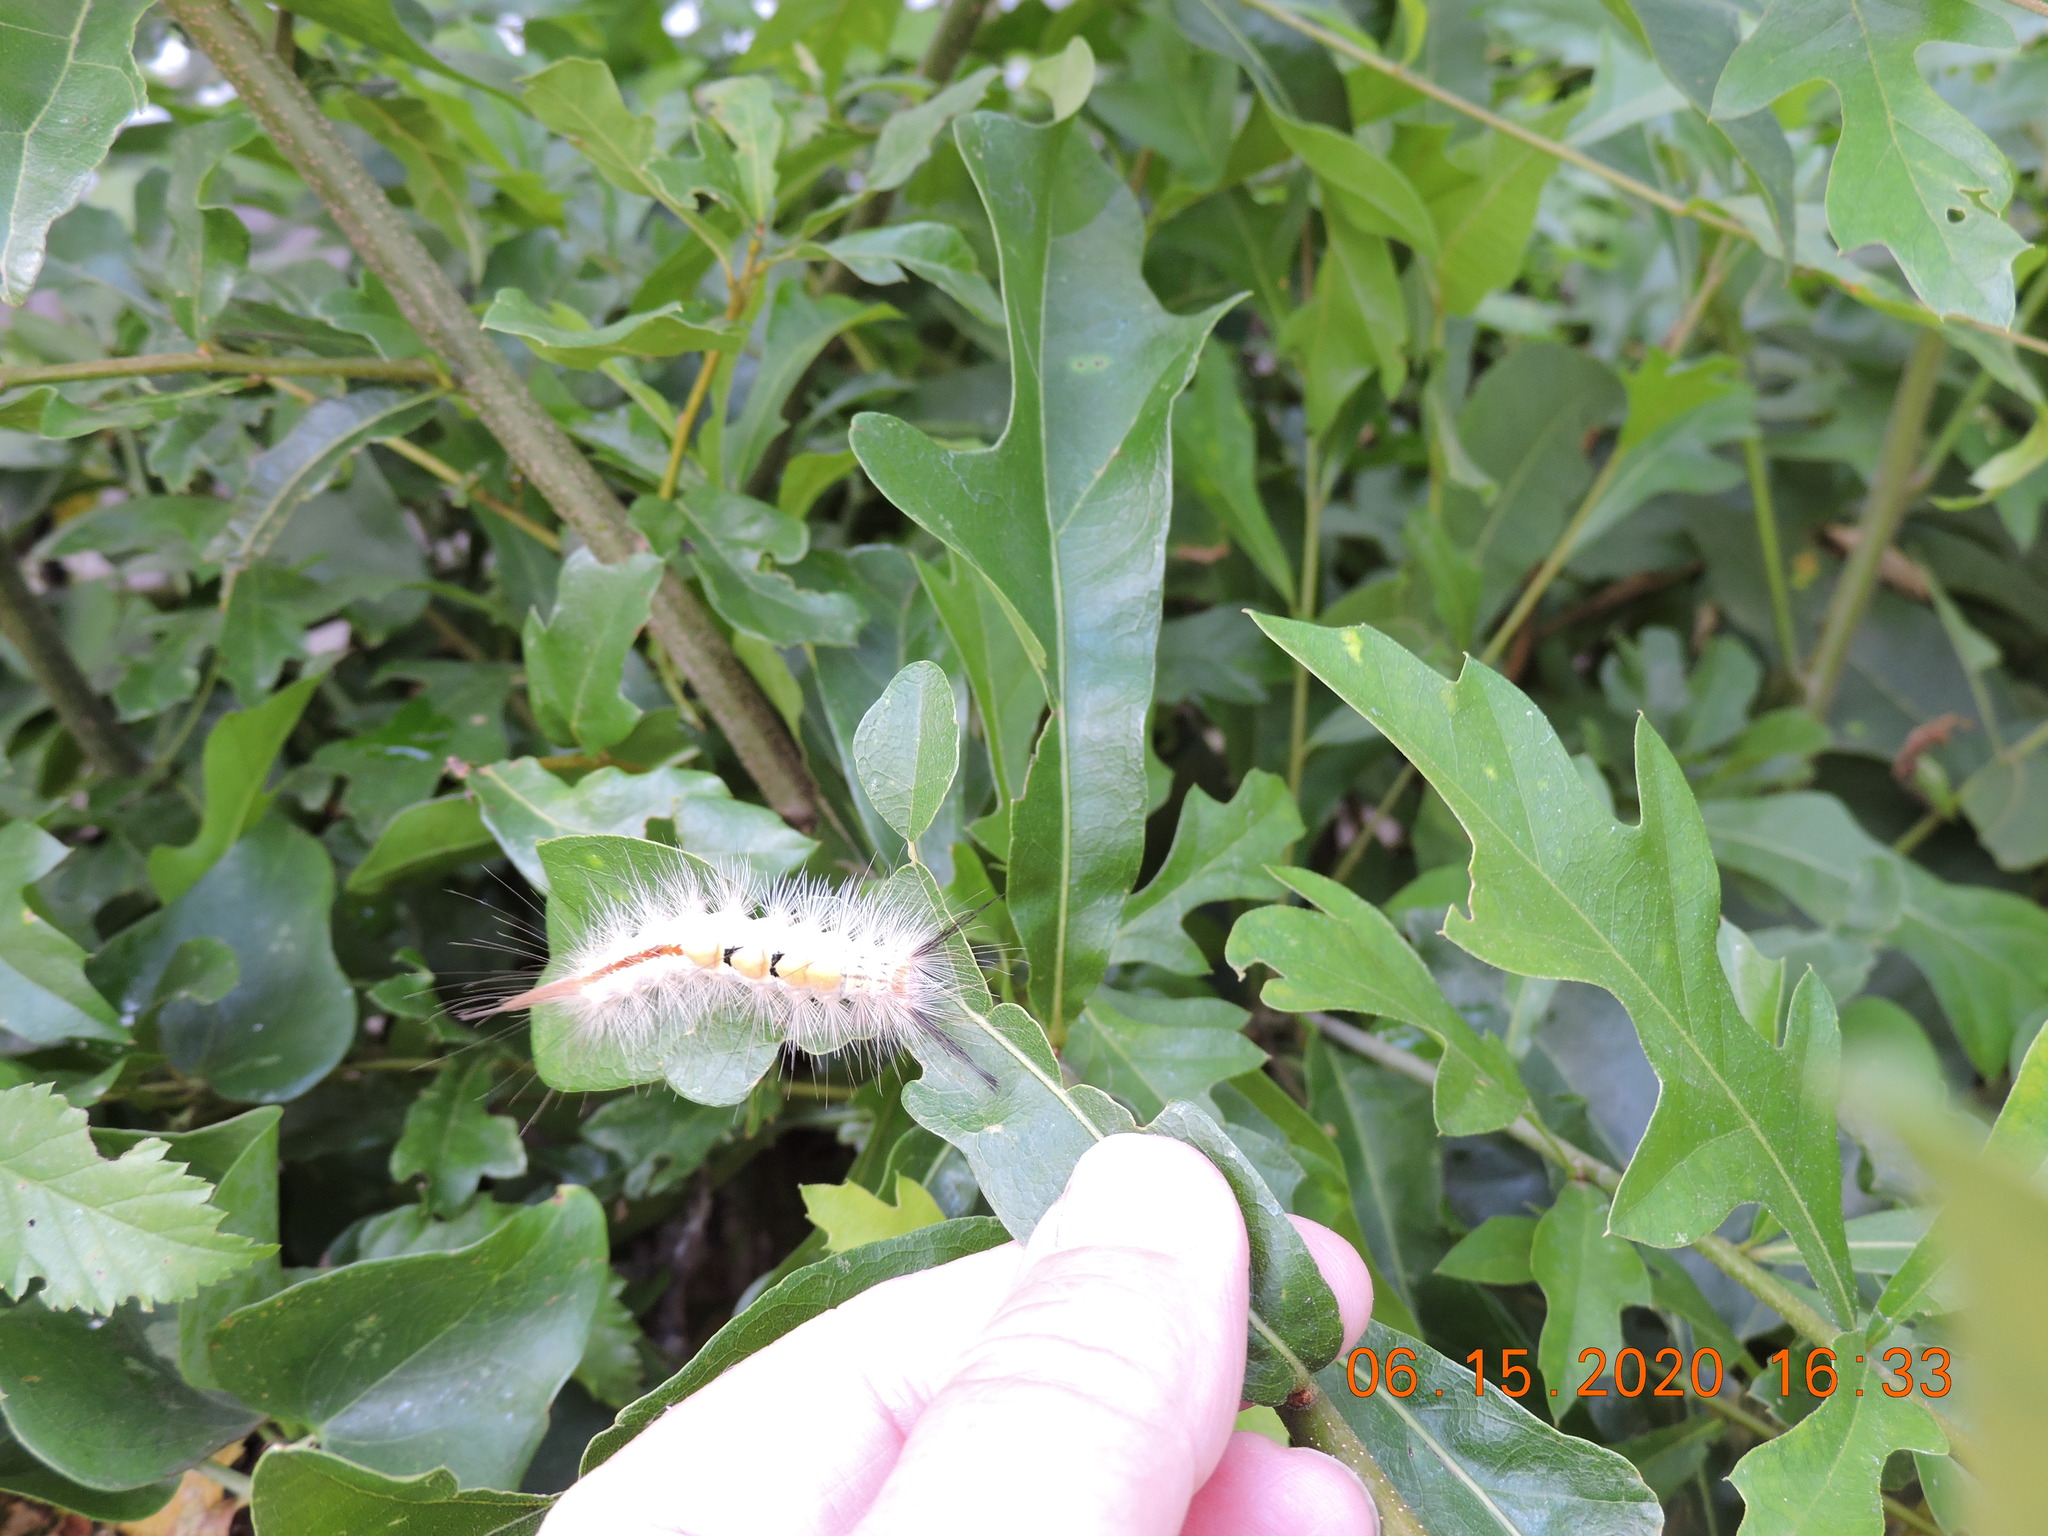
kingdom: Animalia
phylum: Arthropoda
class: Insecta
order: Lepidoptera
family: Erebidae
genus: Orgyia
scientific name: Orgyia leucostigma
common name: White-marked tussock moth
